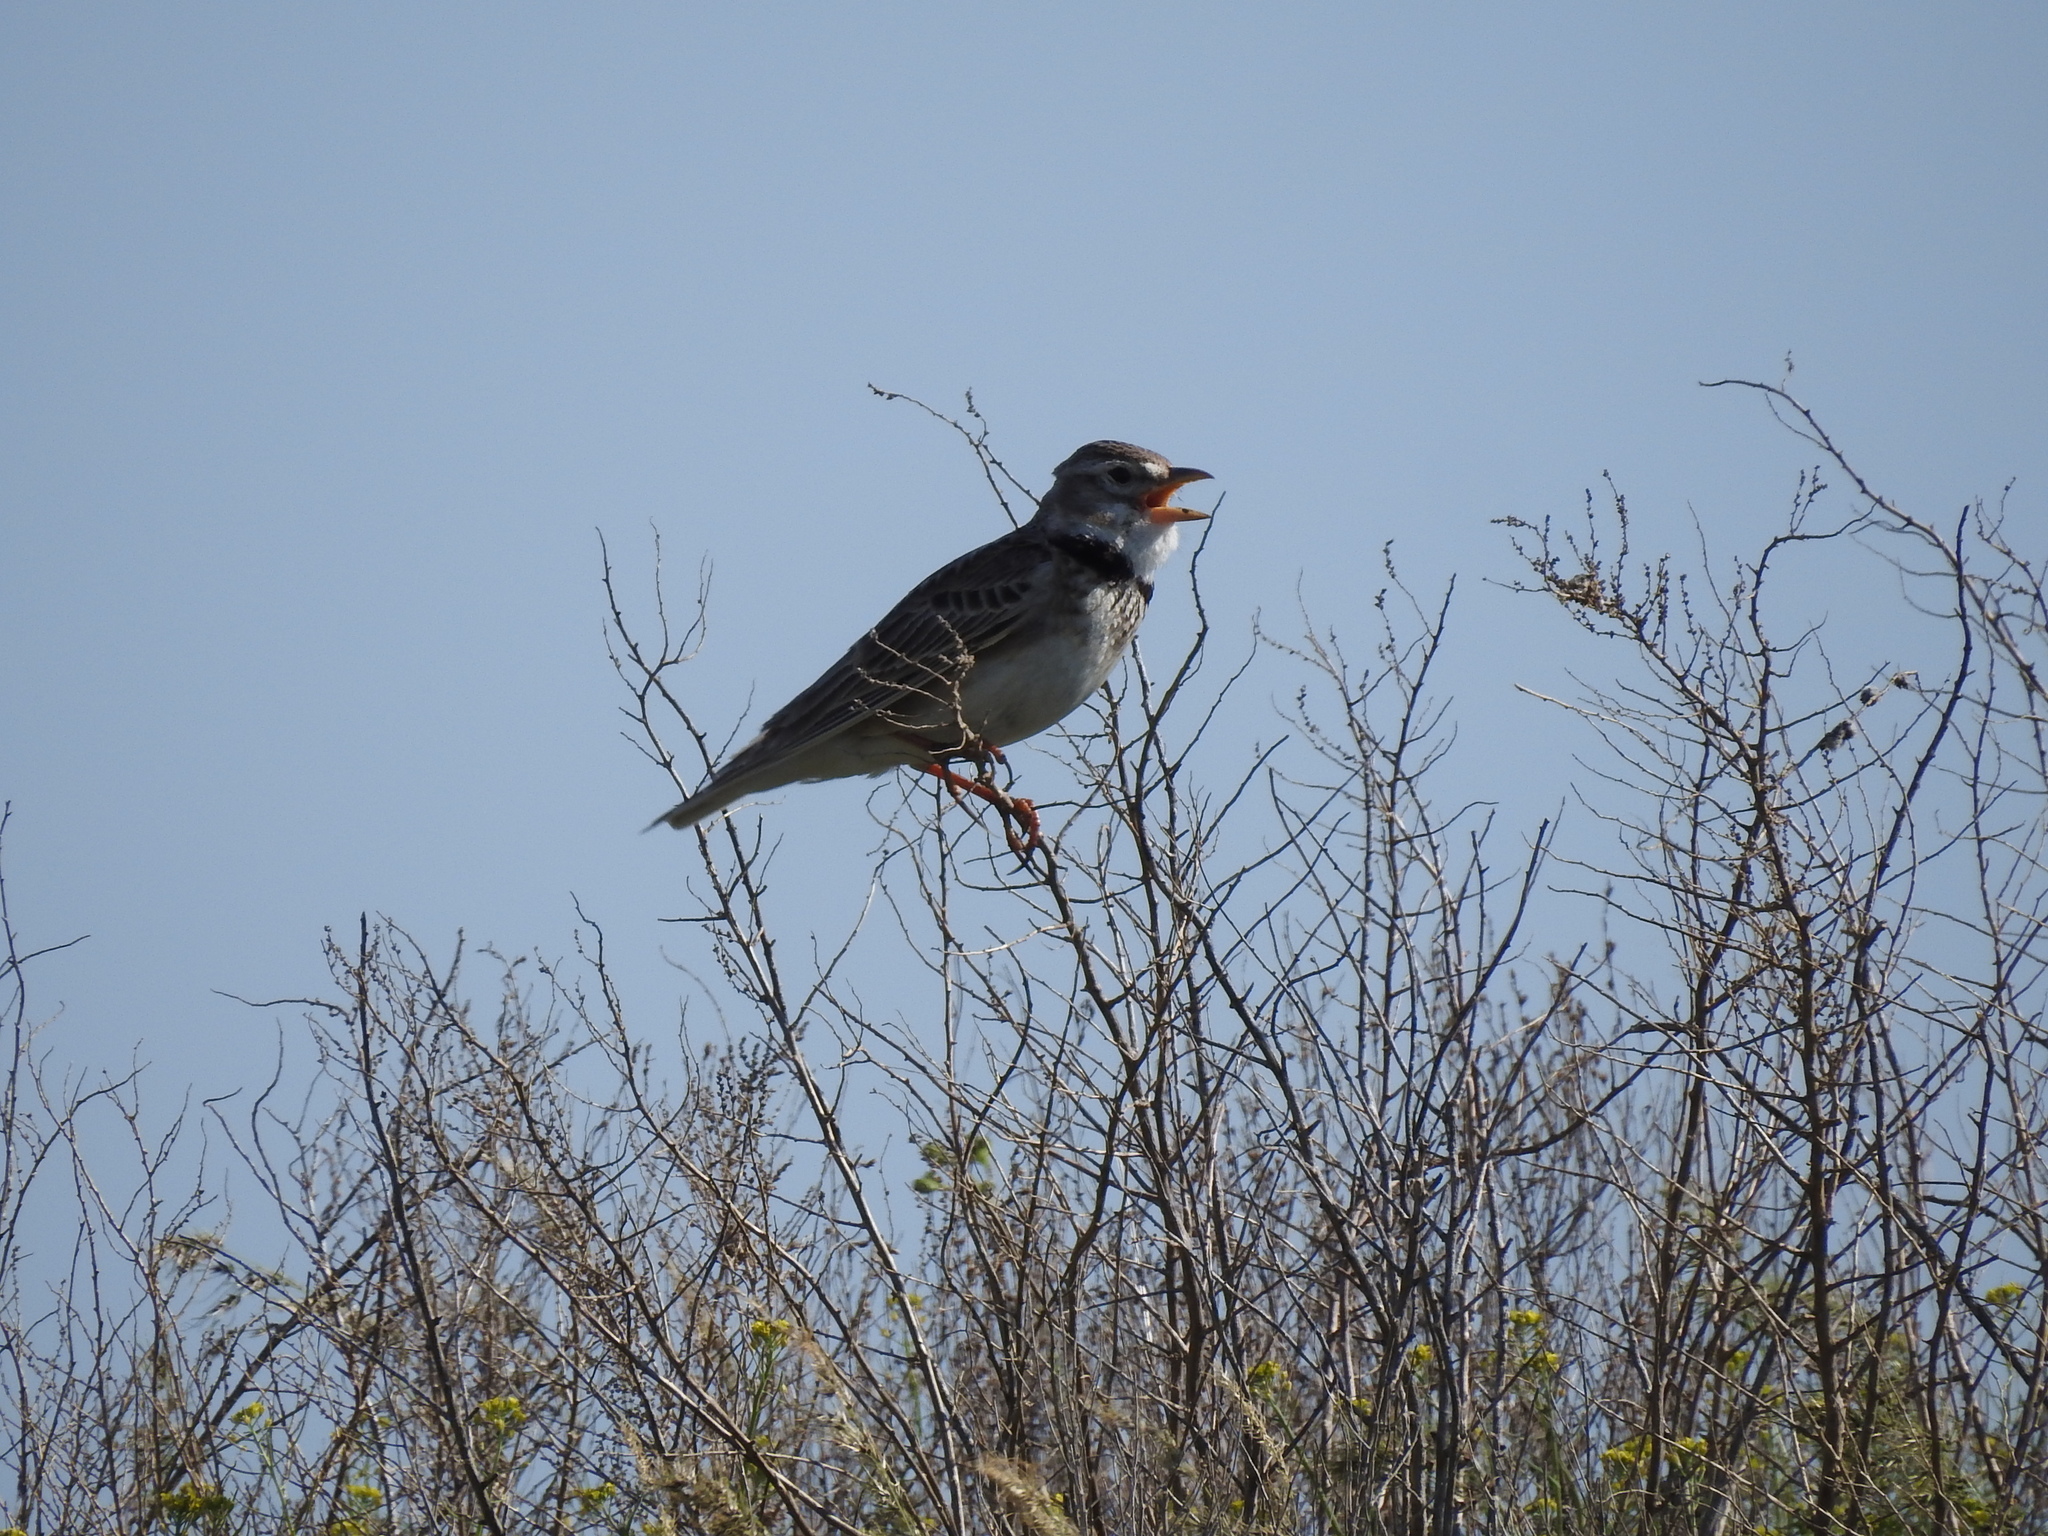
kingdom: Animalia
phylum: Chordata
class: Aves
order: Passeriformes
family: Alaudidae
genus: Melanocorypha
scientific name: Melanocorypha calandra
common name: Calandra lark
